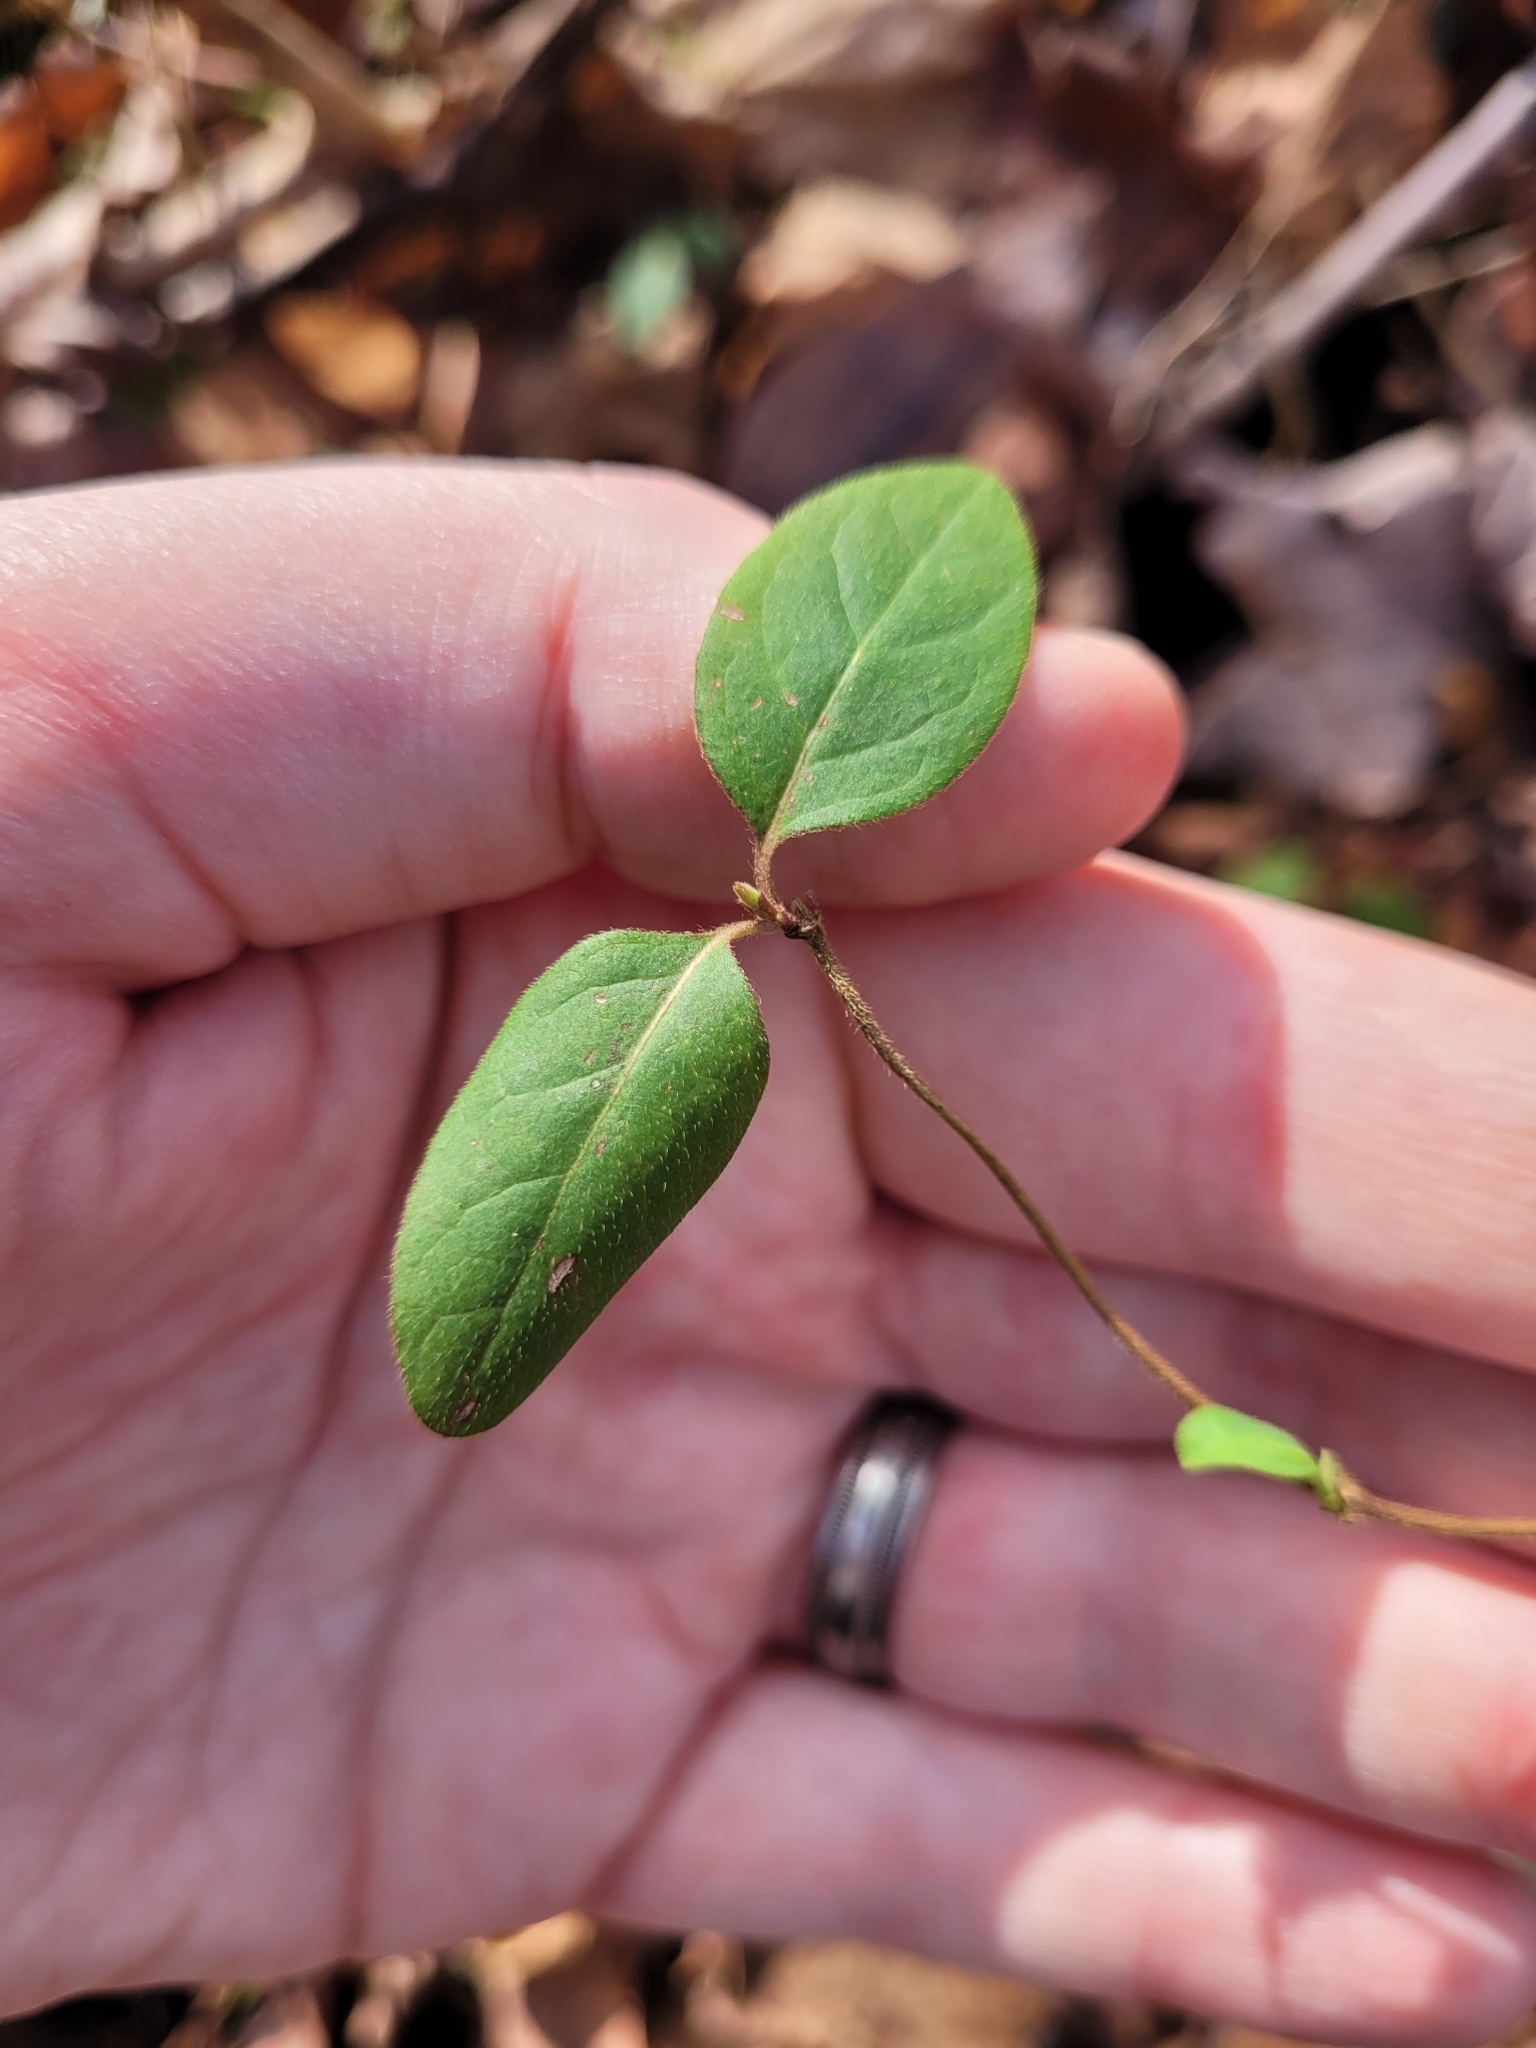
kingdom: Plantae
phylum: Tracheophyta
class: Magnoliopsida
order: Dipsacales
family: Caprifoliaceae
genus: Lonicera
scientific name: Lonicera japonica
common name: Japanese honeysuckle
